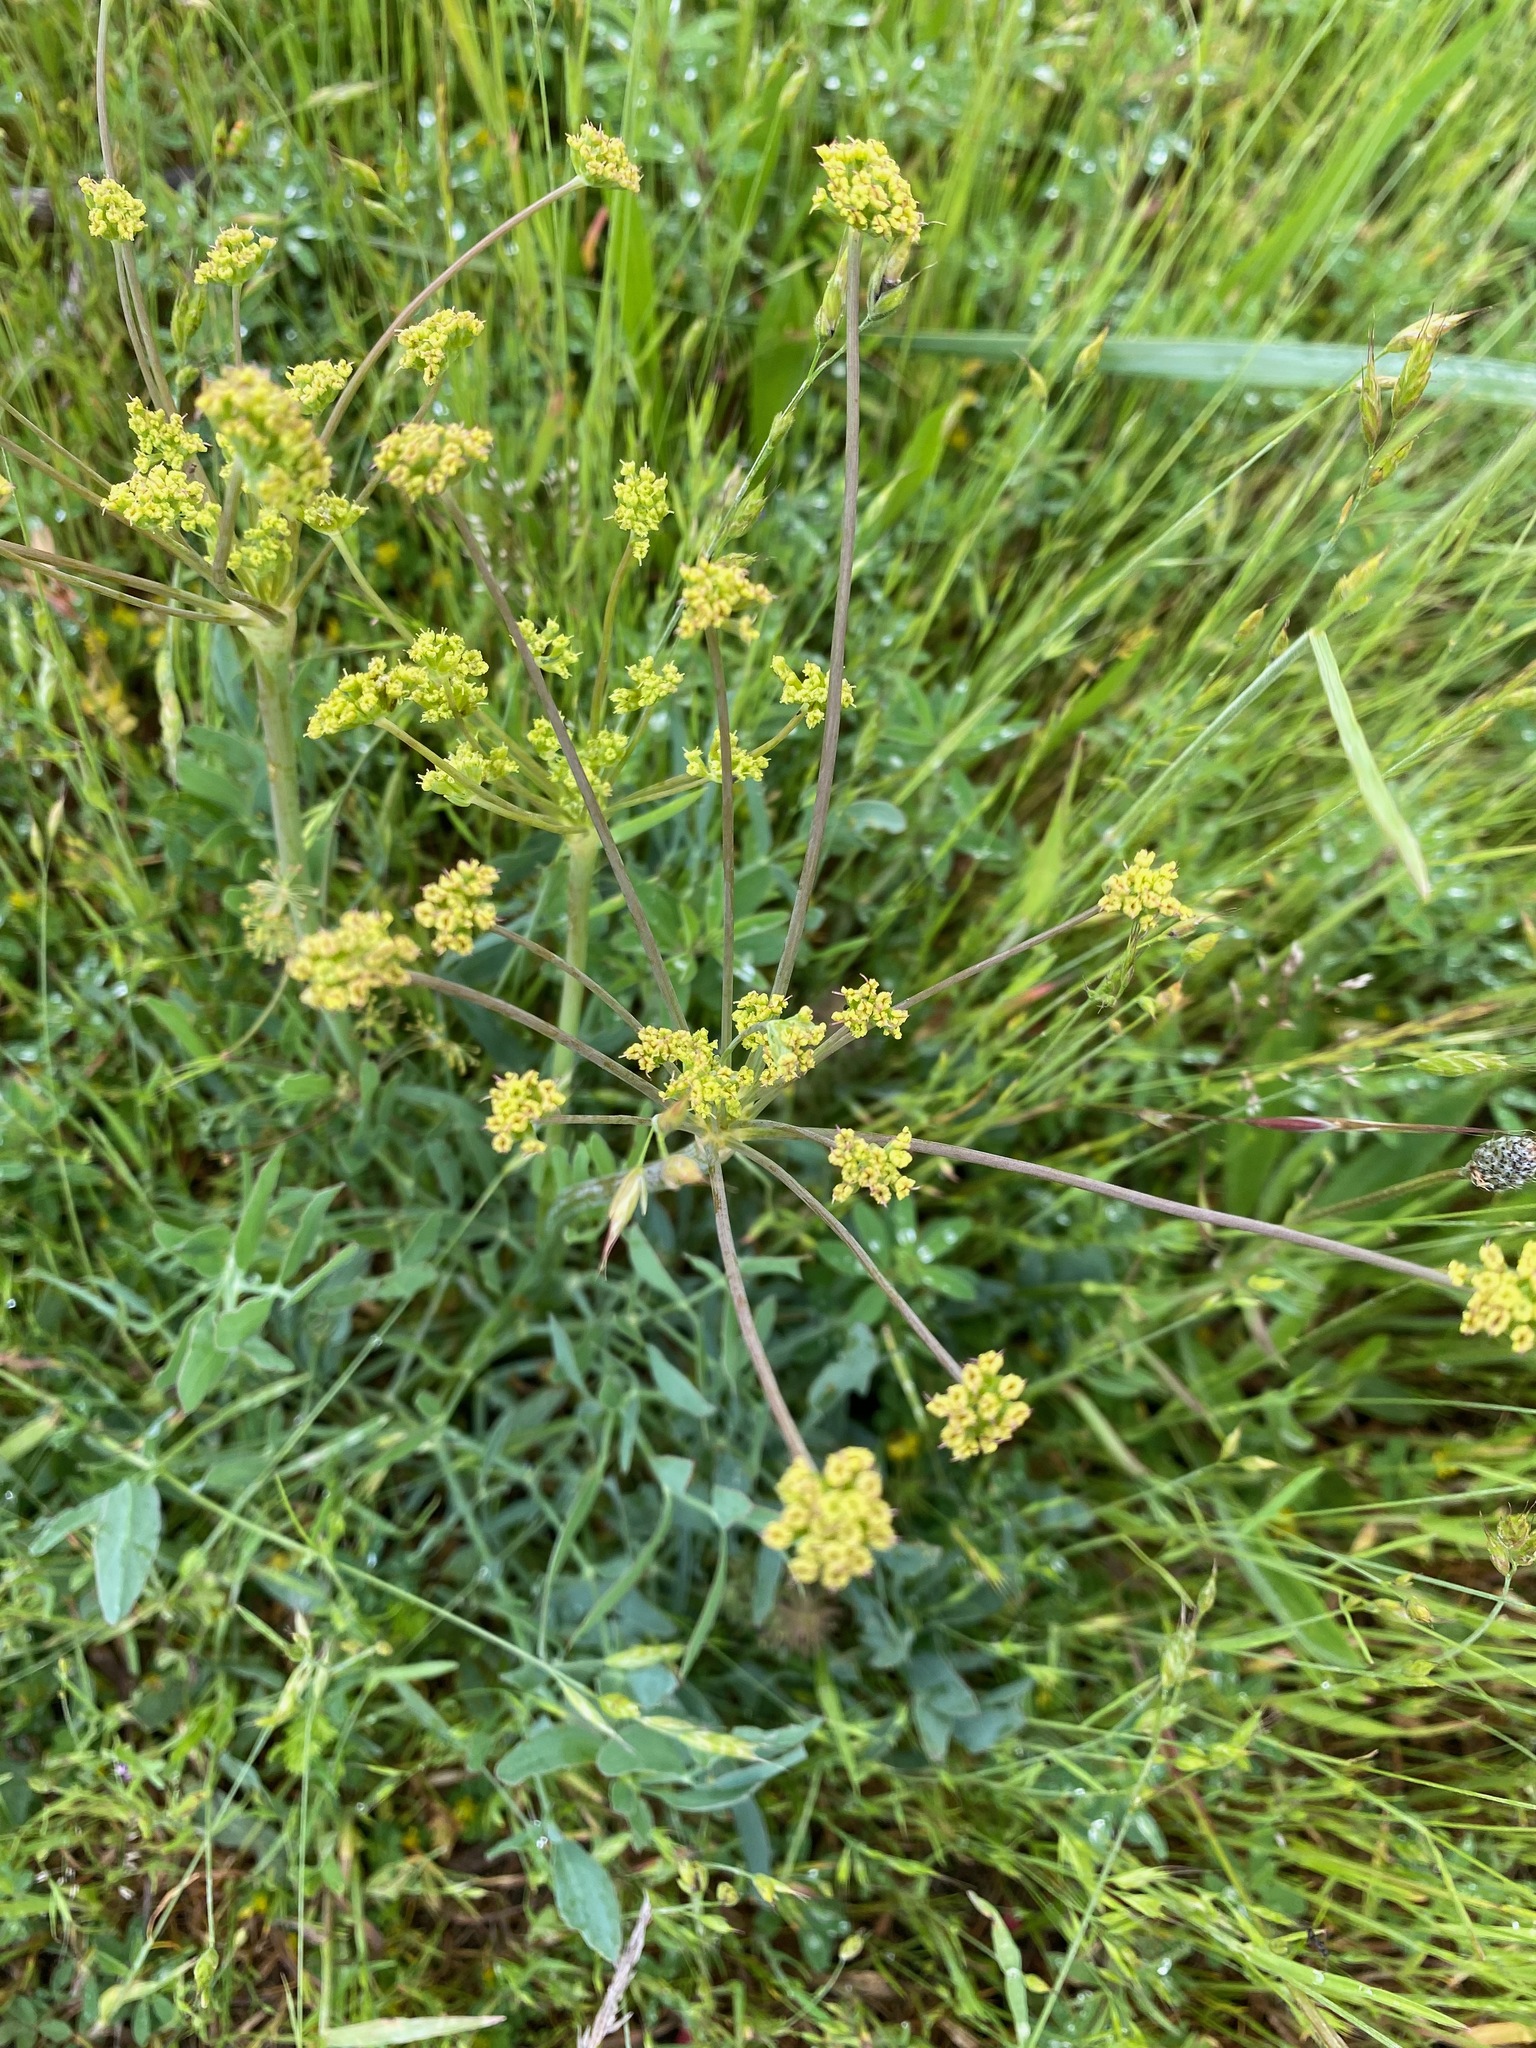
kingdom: Plantae
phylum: Tracheophyta
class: Magnoliopsida
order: Apiales
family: Apiaceae
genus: Lomatium
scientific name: Lomatium nudicaule
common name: Pestle lomatium
